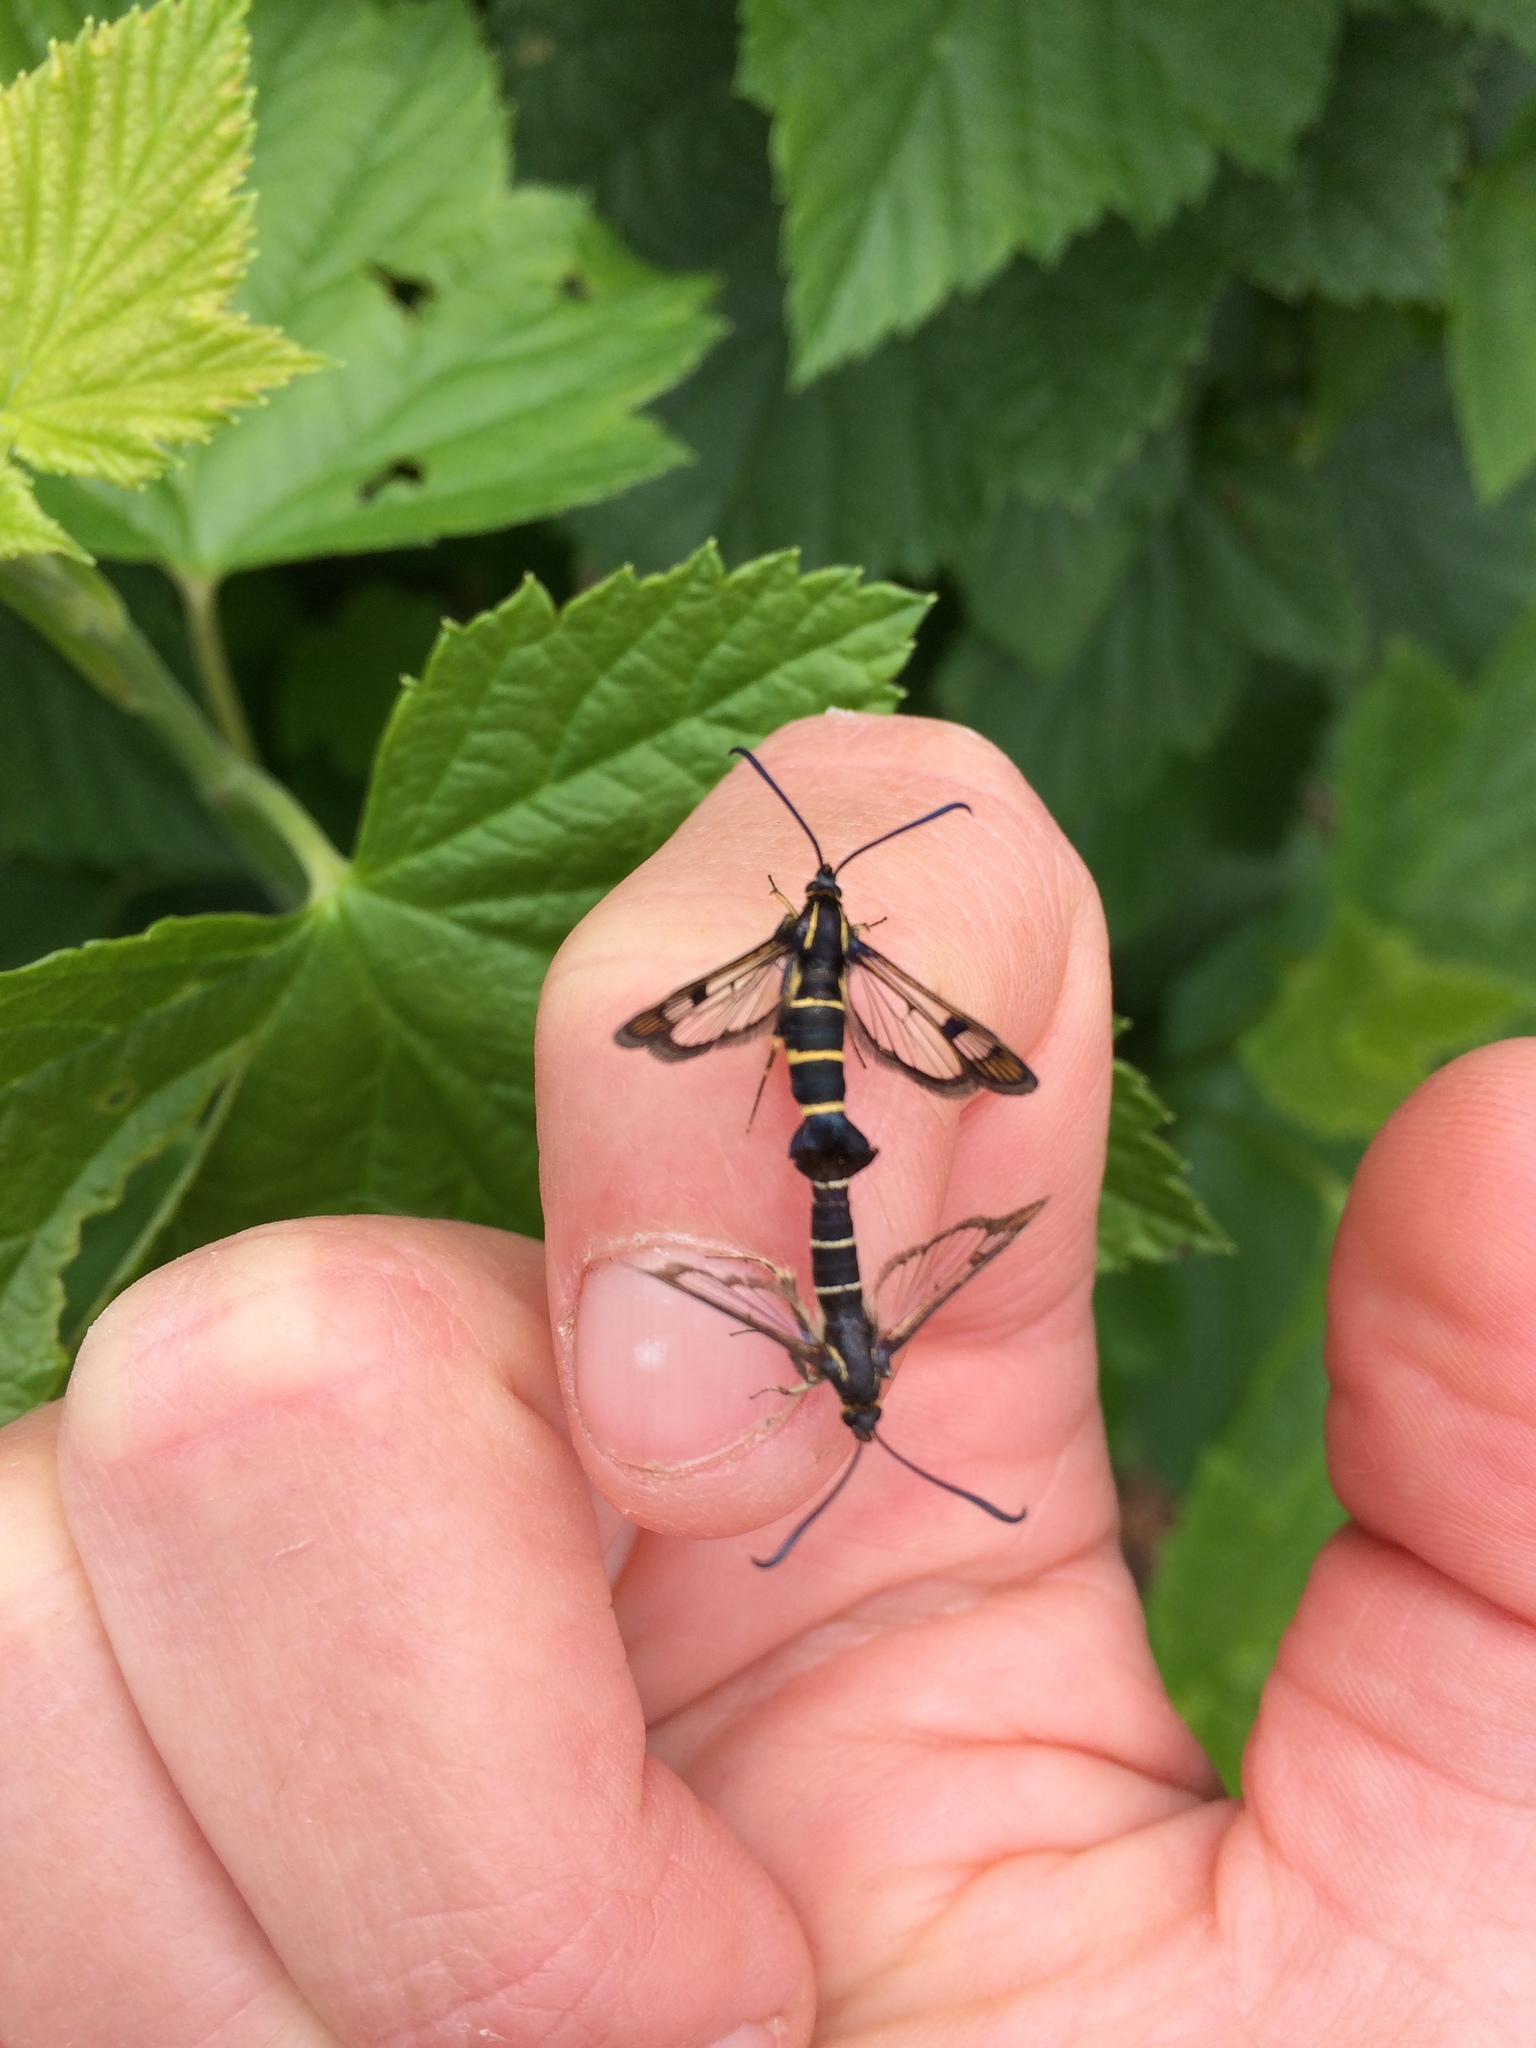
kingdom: Animalia
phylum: Arthropoda
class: Insecta
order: Lepidoptera
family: Sesiidae
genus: Synanthedon
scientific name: Synanthedon tipuliformis
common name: Currant clearwing
